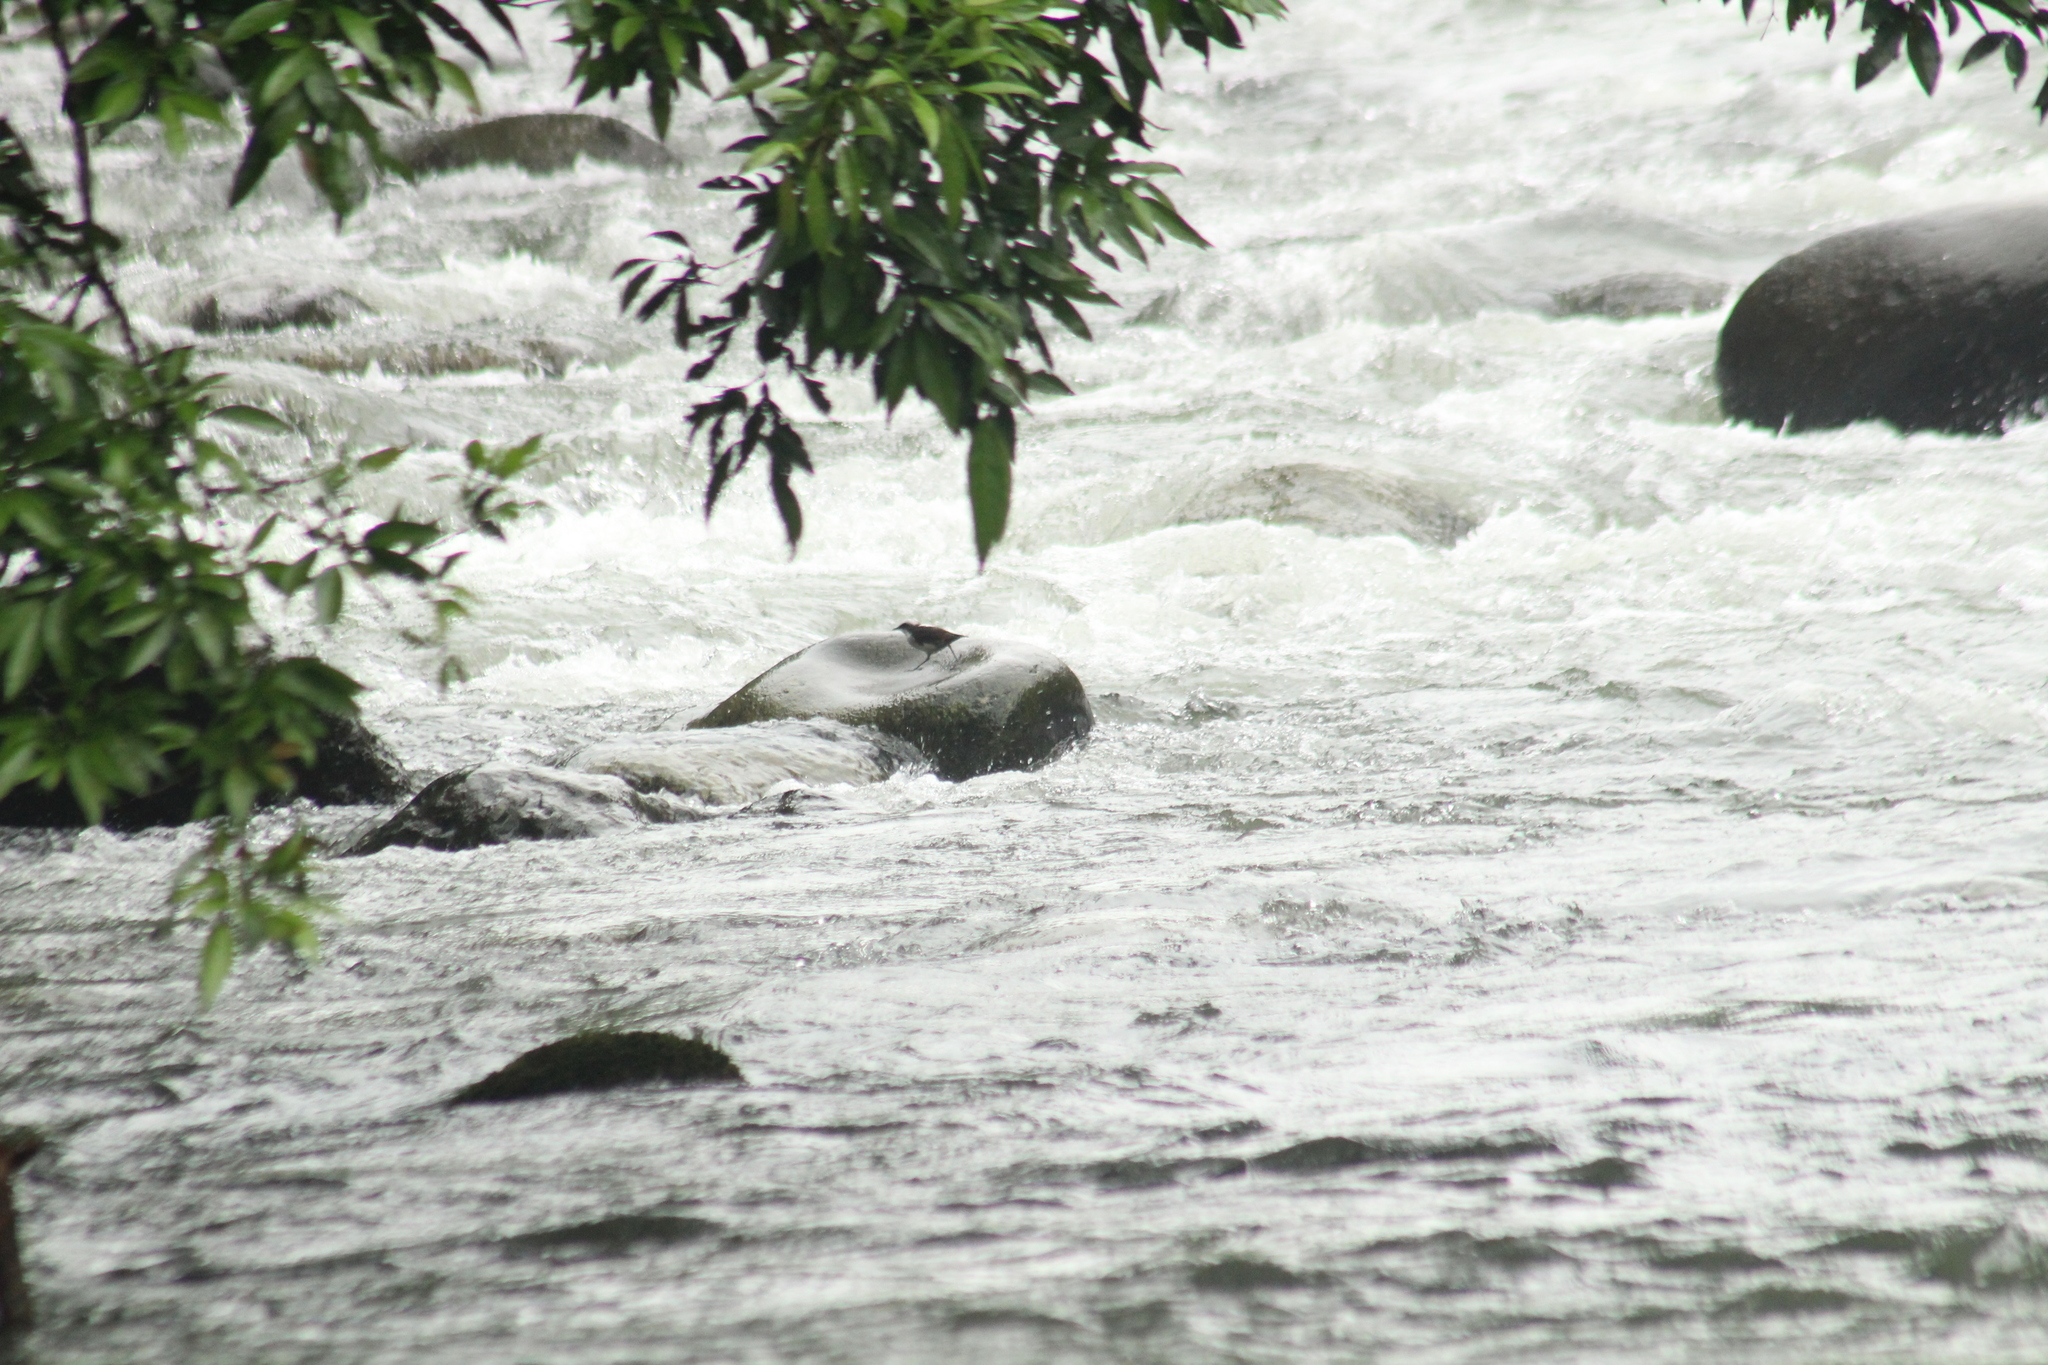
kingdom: Animalia
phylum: Chordata
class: Aves
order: Passeriformes
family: Cinclidae
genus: Cinclus
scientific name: Cinclus leucocephalus
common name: White-capped dipper
